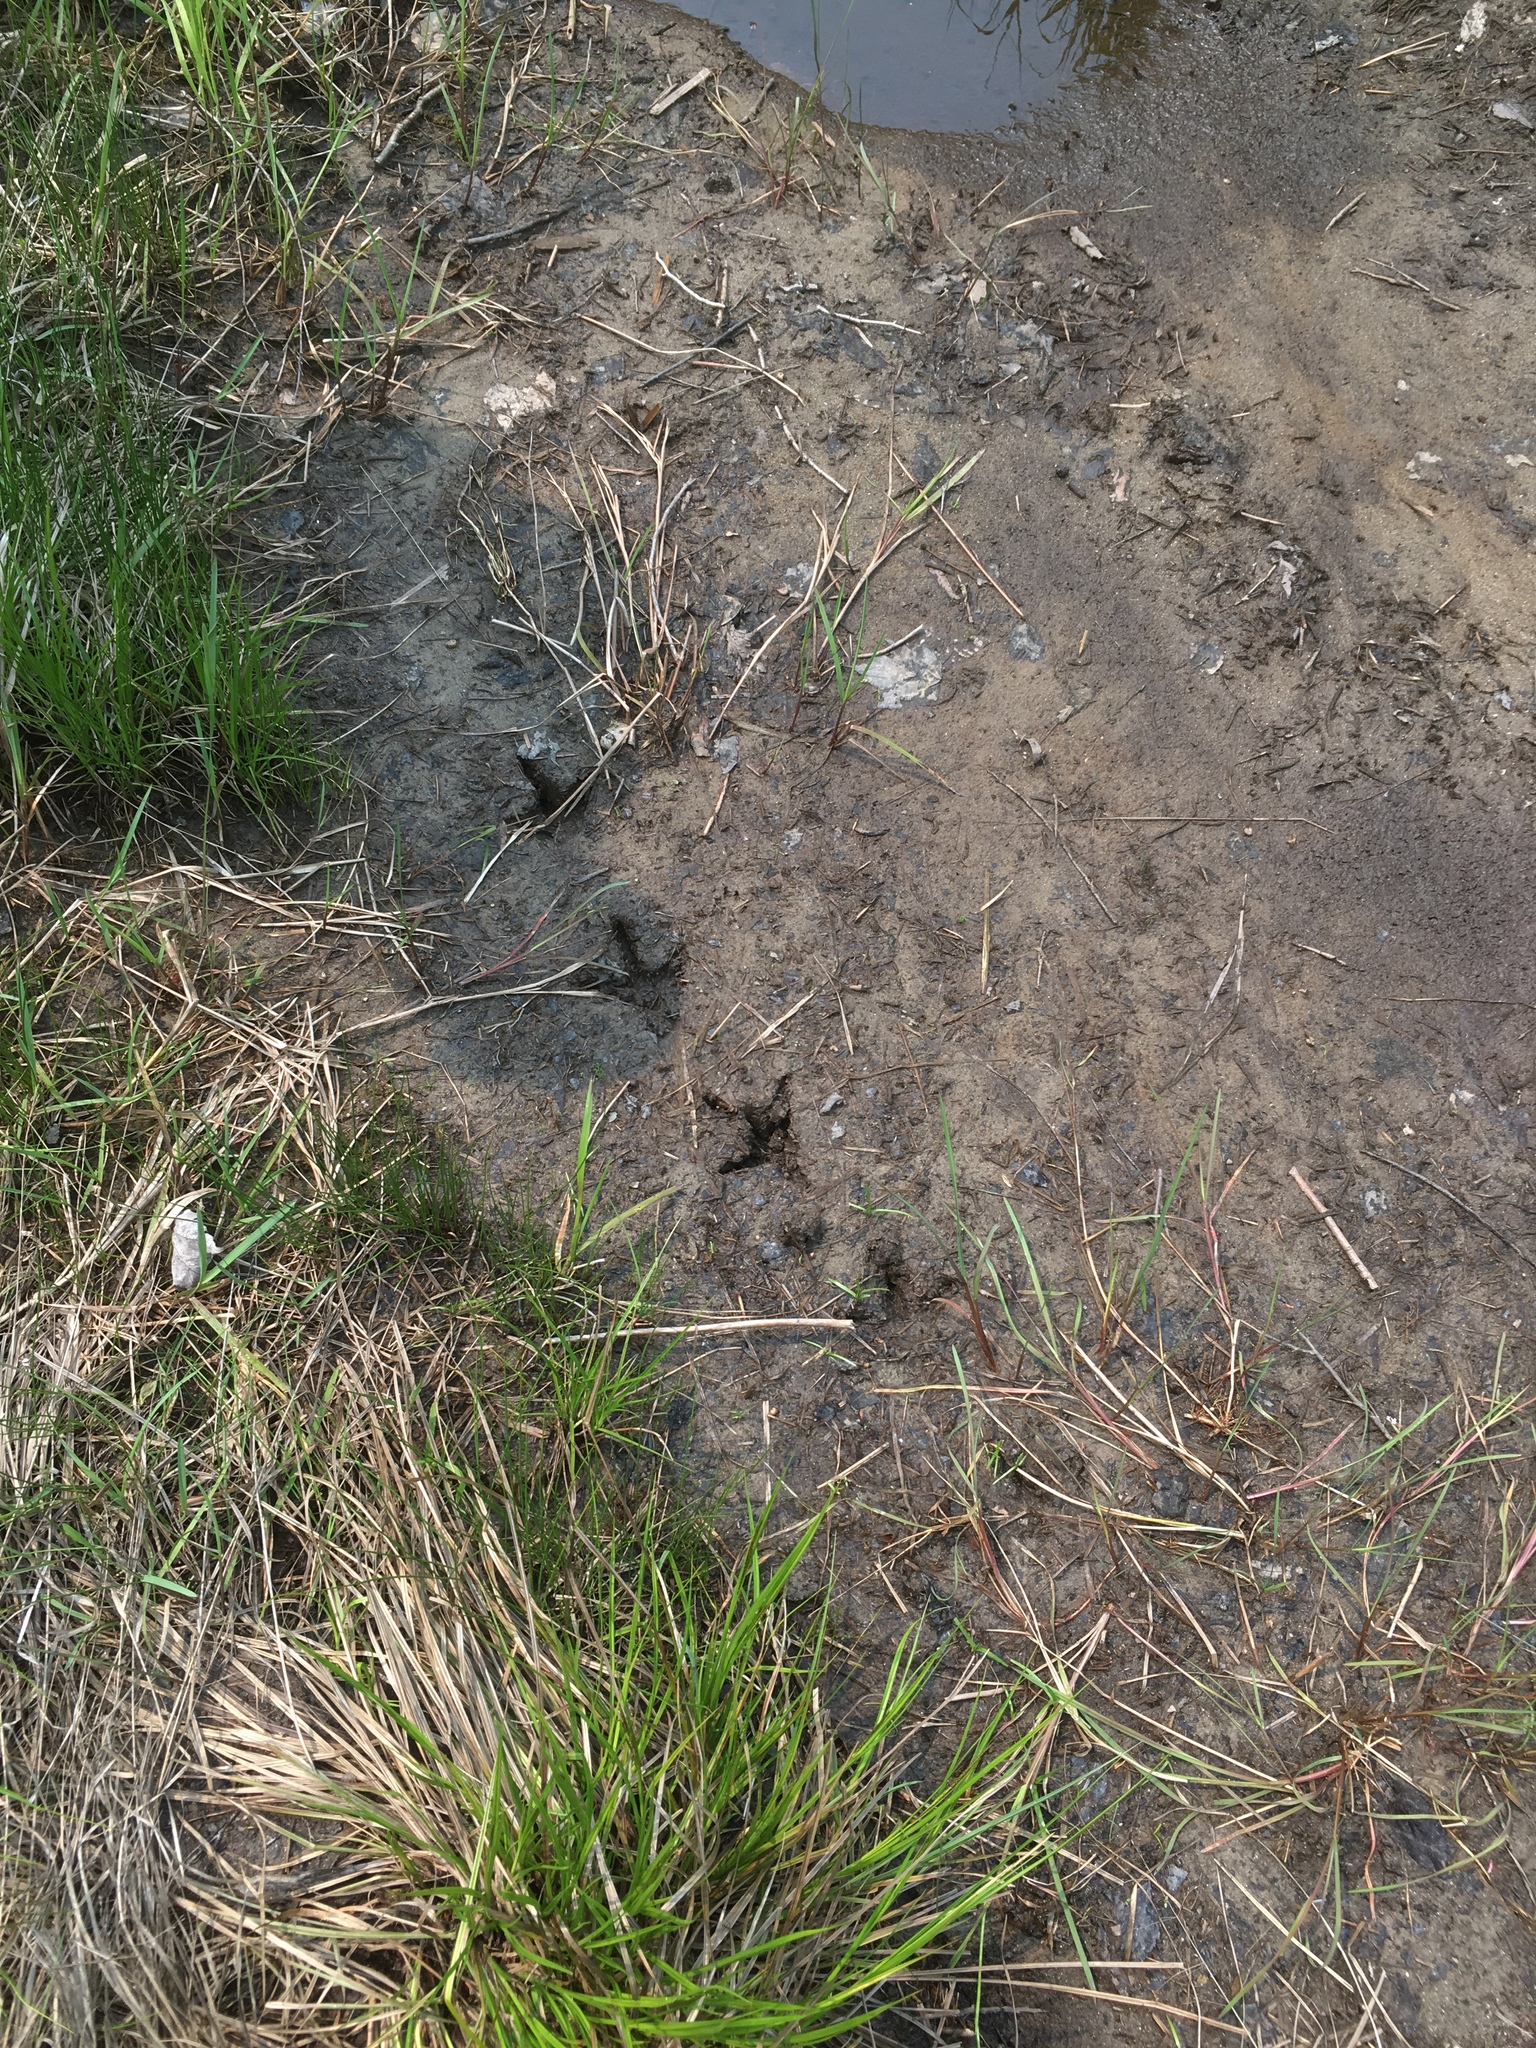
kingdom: Animalia
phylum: Chordata
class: Aves
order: Galliformes
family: Phasianidae
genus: Meleagris
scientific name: Meleagris gallopavo
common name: Wild turkey
